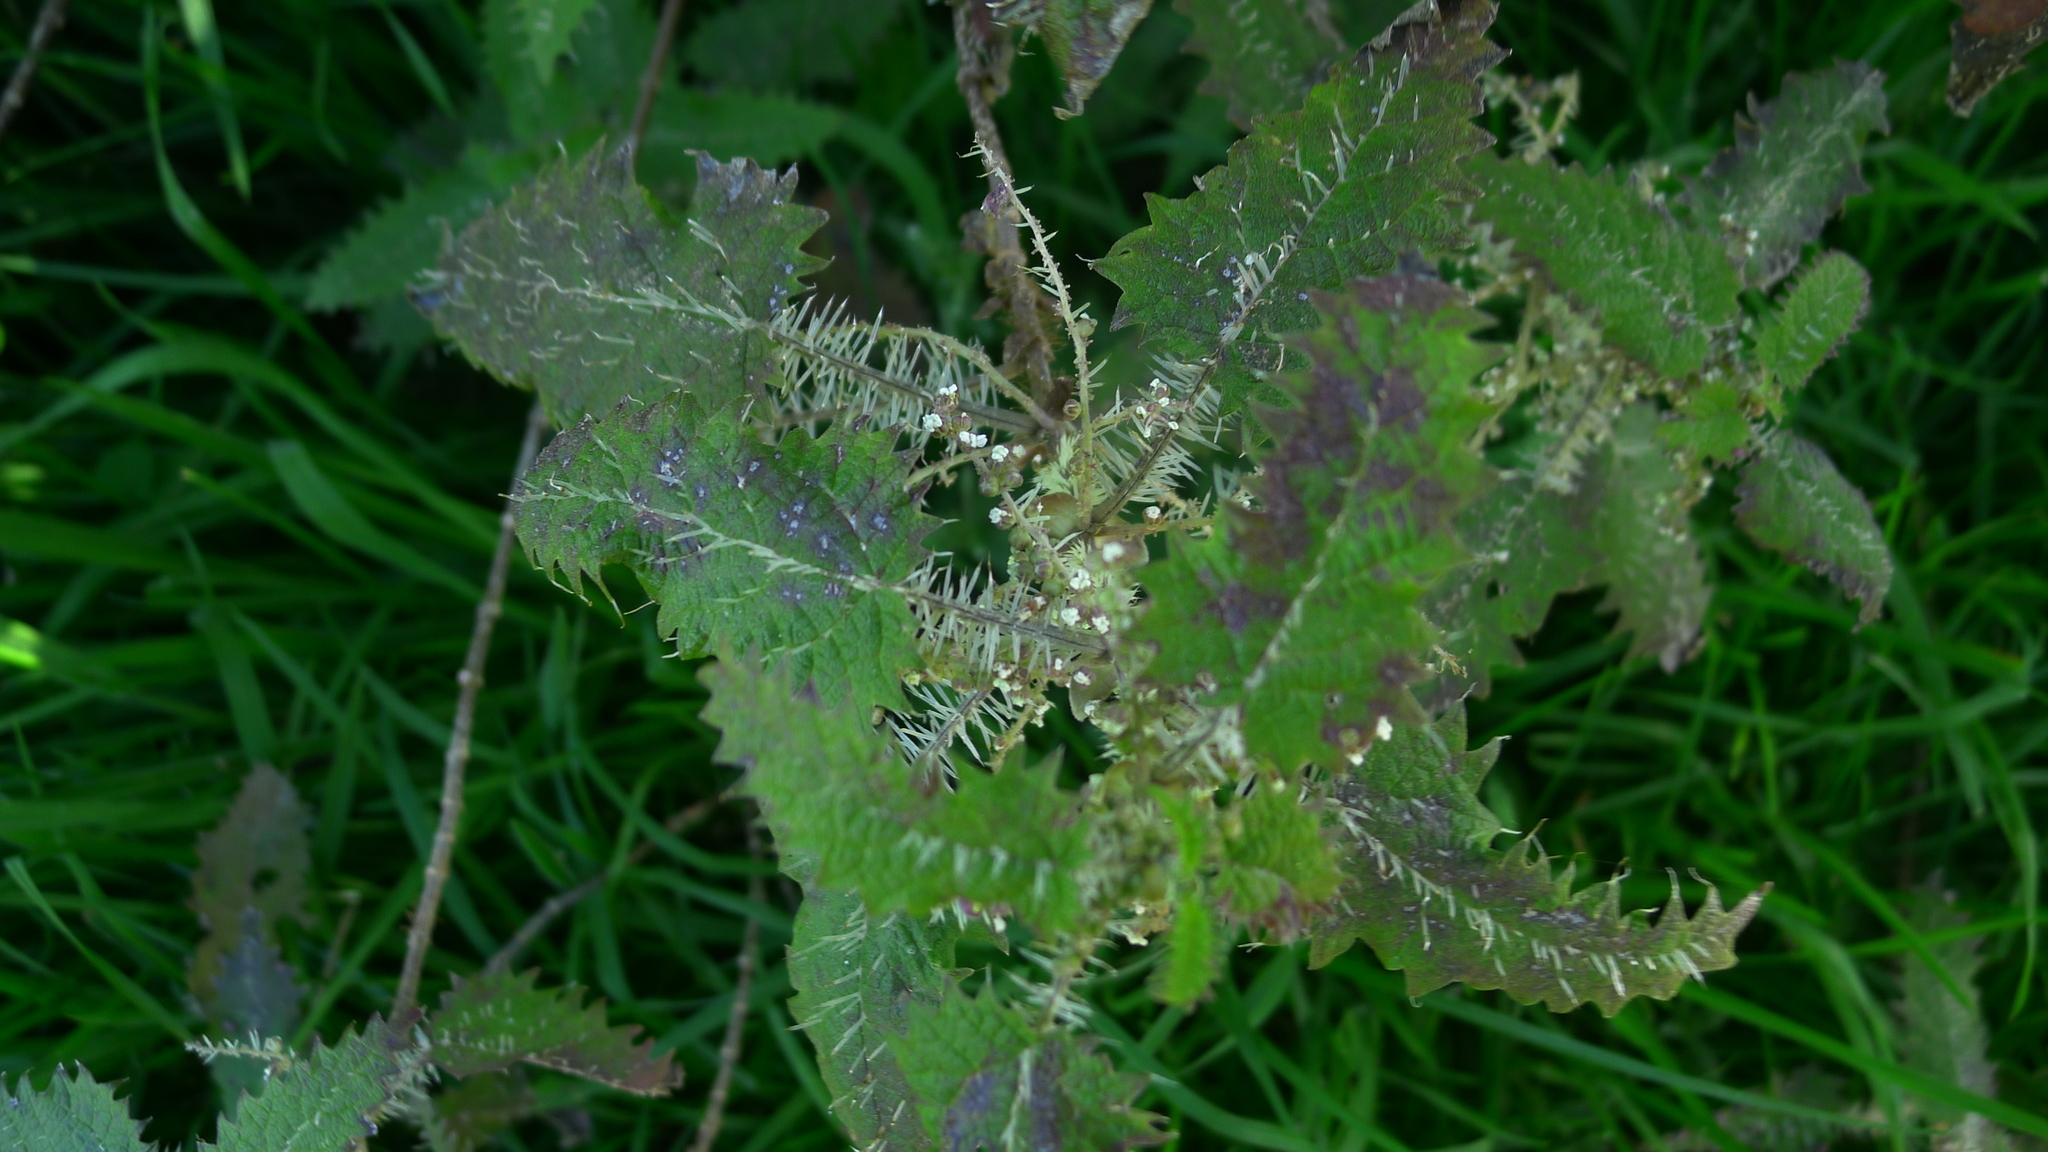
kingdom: Plantae
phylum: Tracheophyta
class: Magnoliopsida
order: Rosales
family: Urticaceae
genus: Urtica
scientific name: Urtica ferox
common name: Tree nettle
